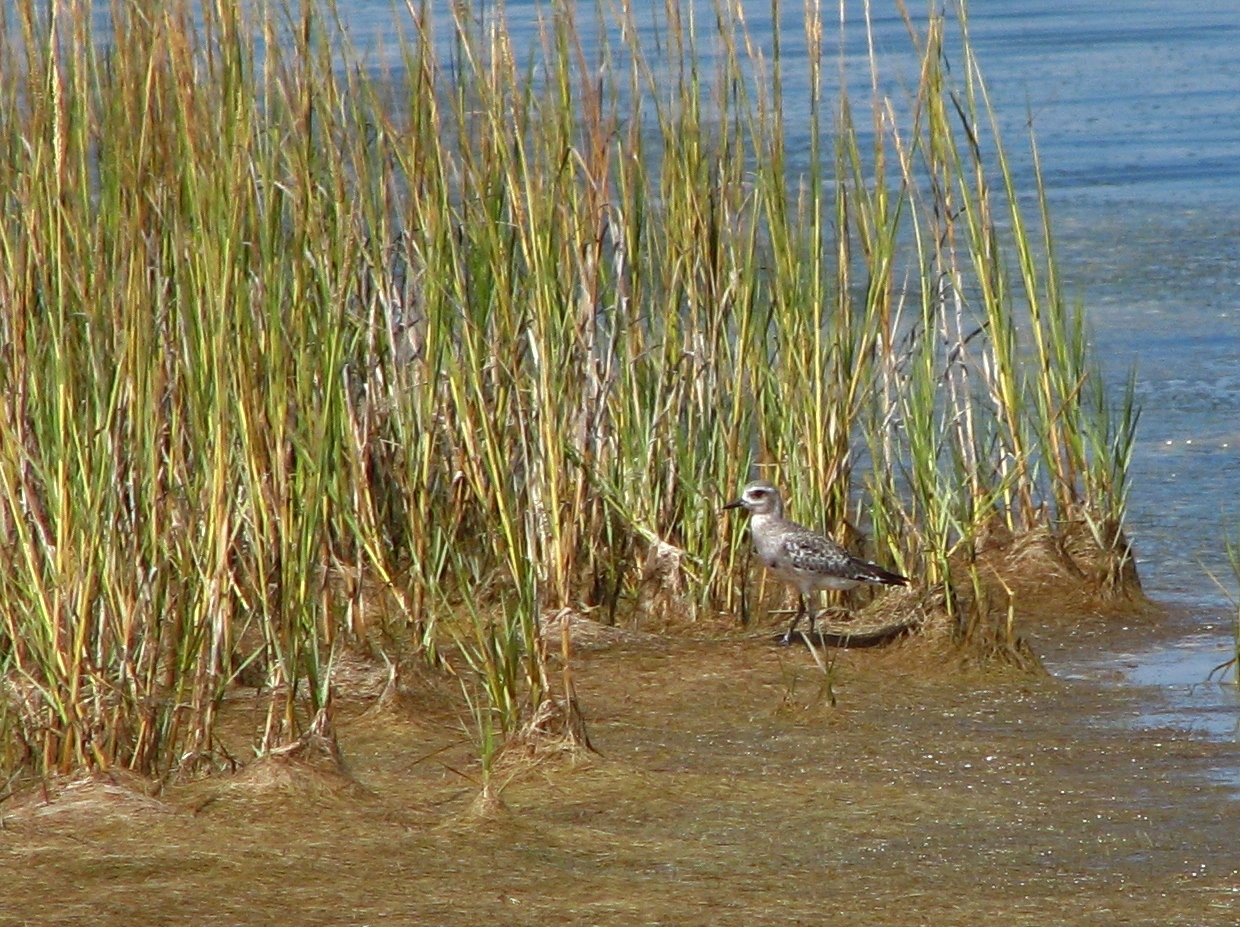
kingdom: Animalia
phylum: Chordata
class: Aves
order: Charadriiformes
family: Charadriidae
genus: Pluvialis
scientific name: Pluvialis squatarola
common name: Grey plover
